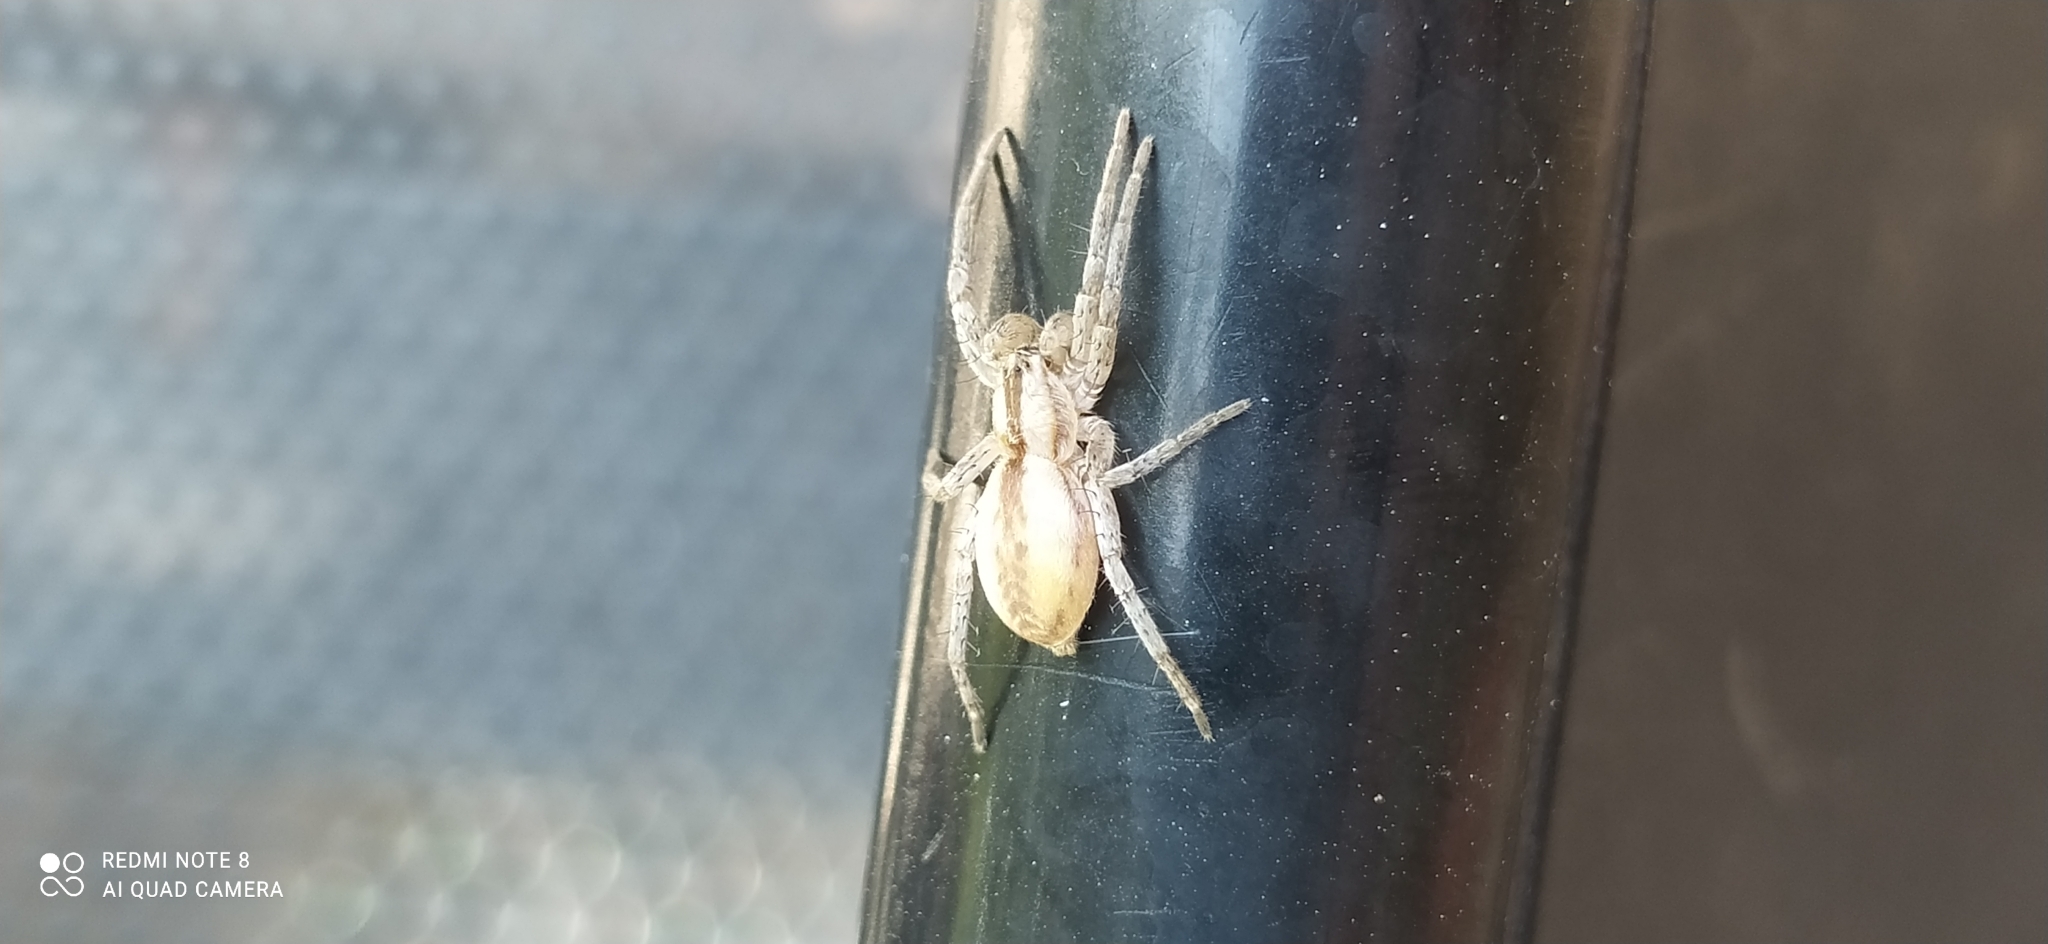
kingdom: Animalia
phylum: Arthropoda
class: Arachnida
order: Araneae
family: Anyphaenidae
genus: Arachosia
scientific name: Arachosia praesignis
